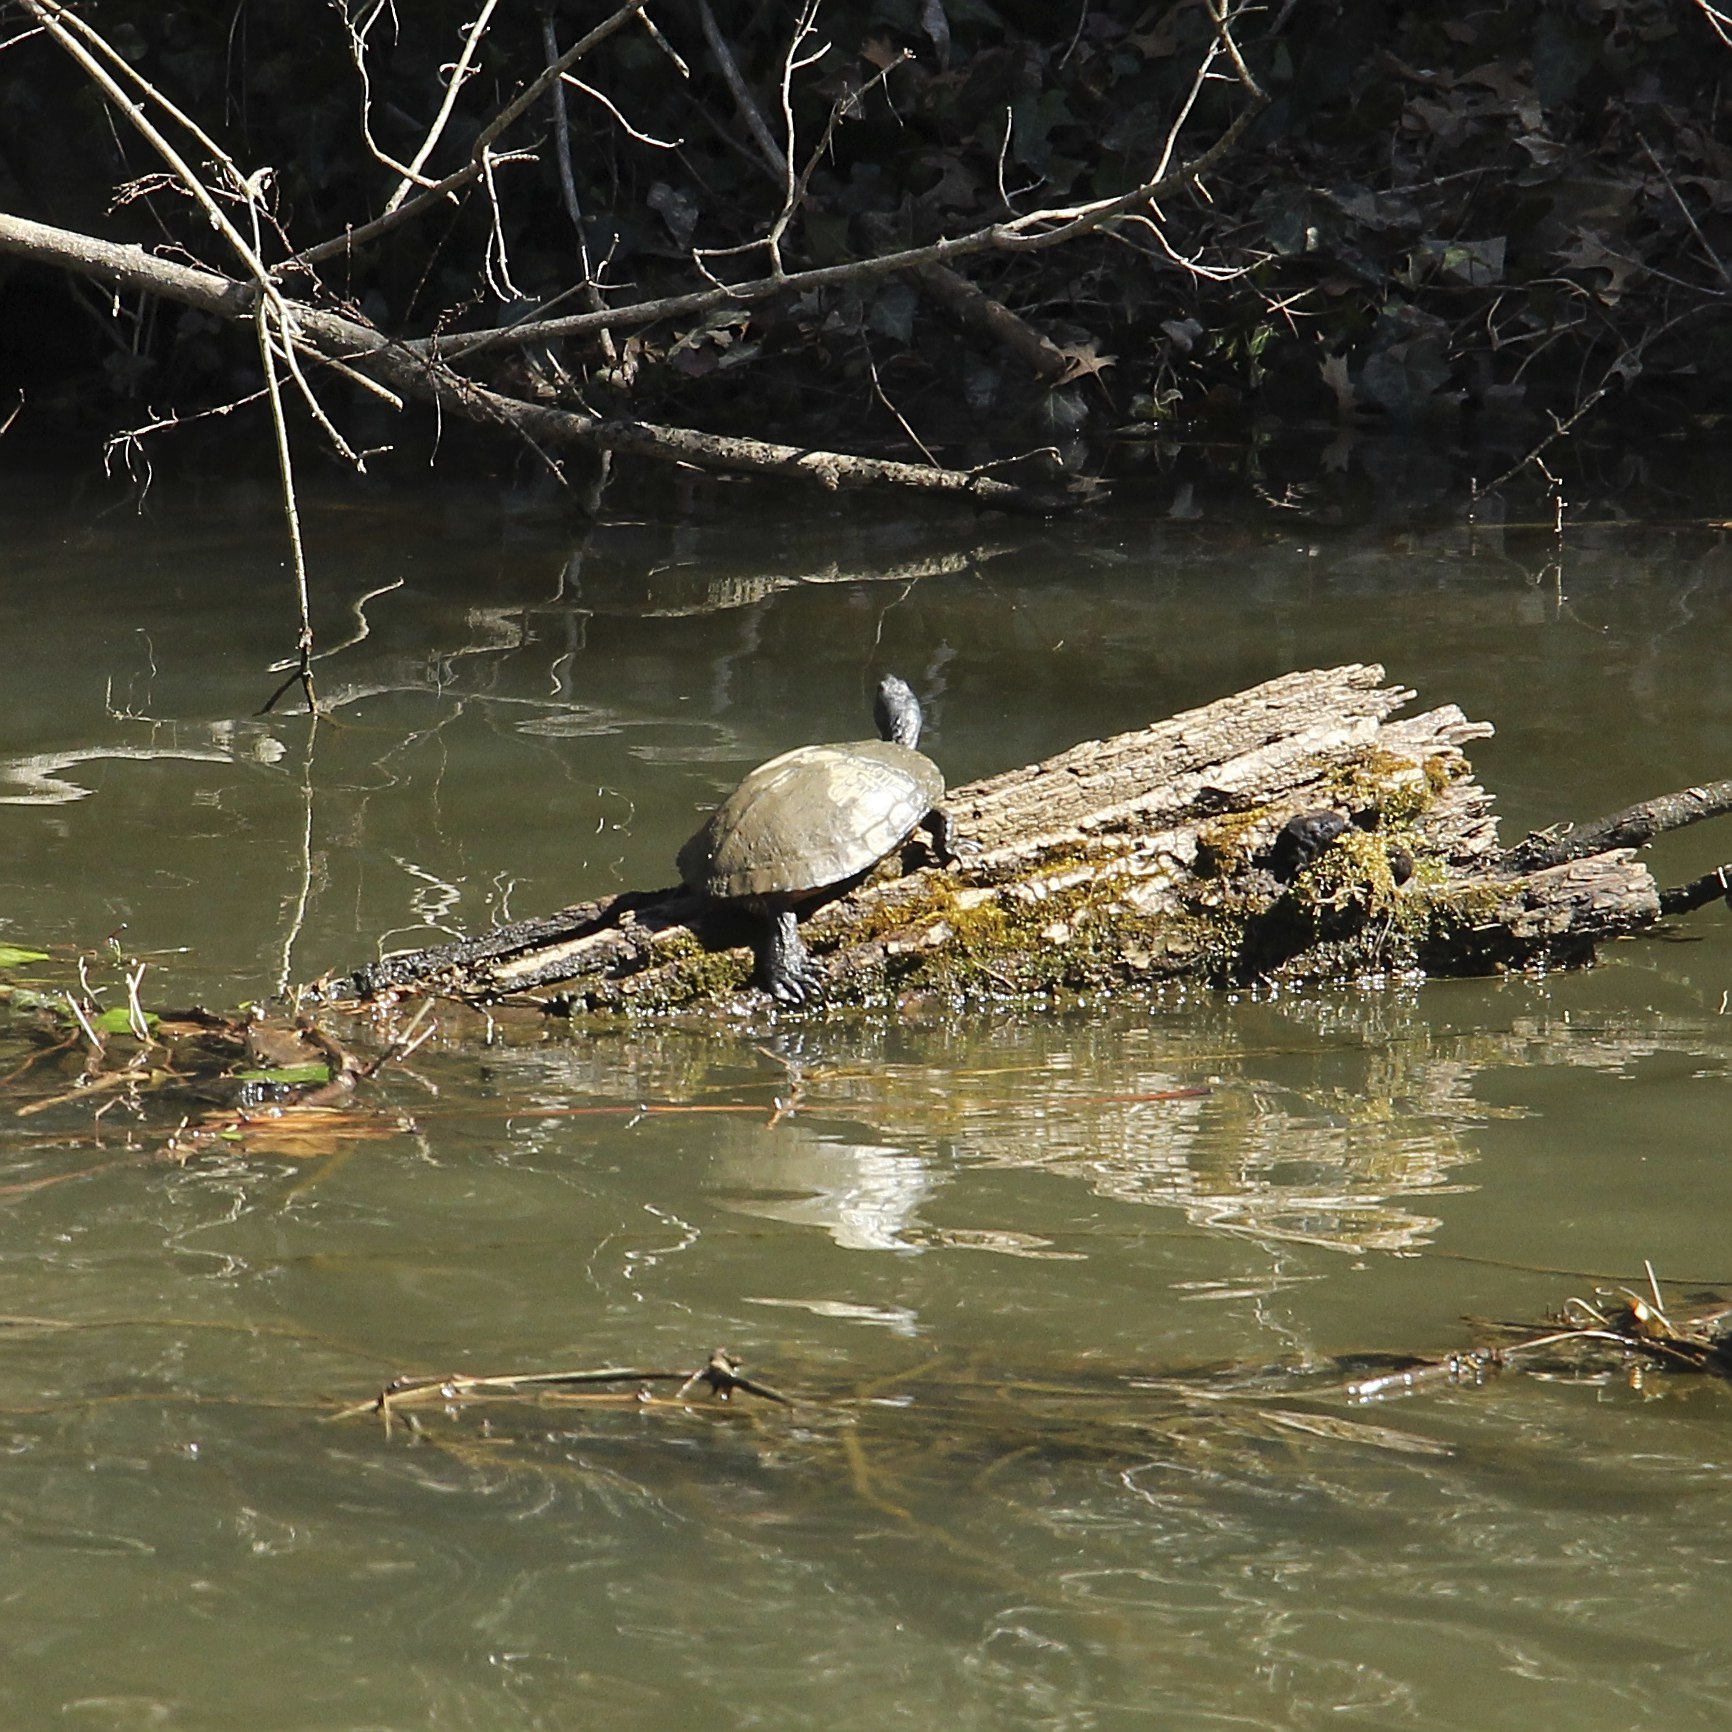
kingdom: Animalia
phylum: Chordata
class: Testudines
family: Emydidae
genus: Trachemys
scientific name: Trachemys scripta
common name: Slider
